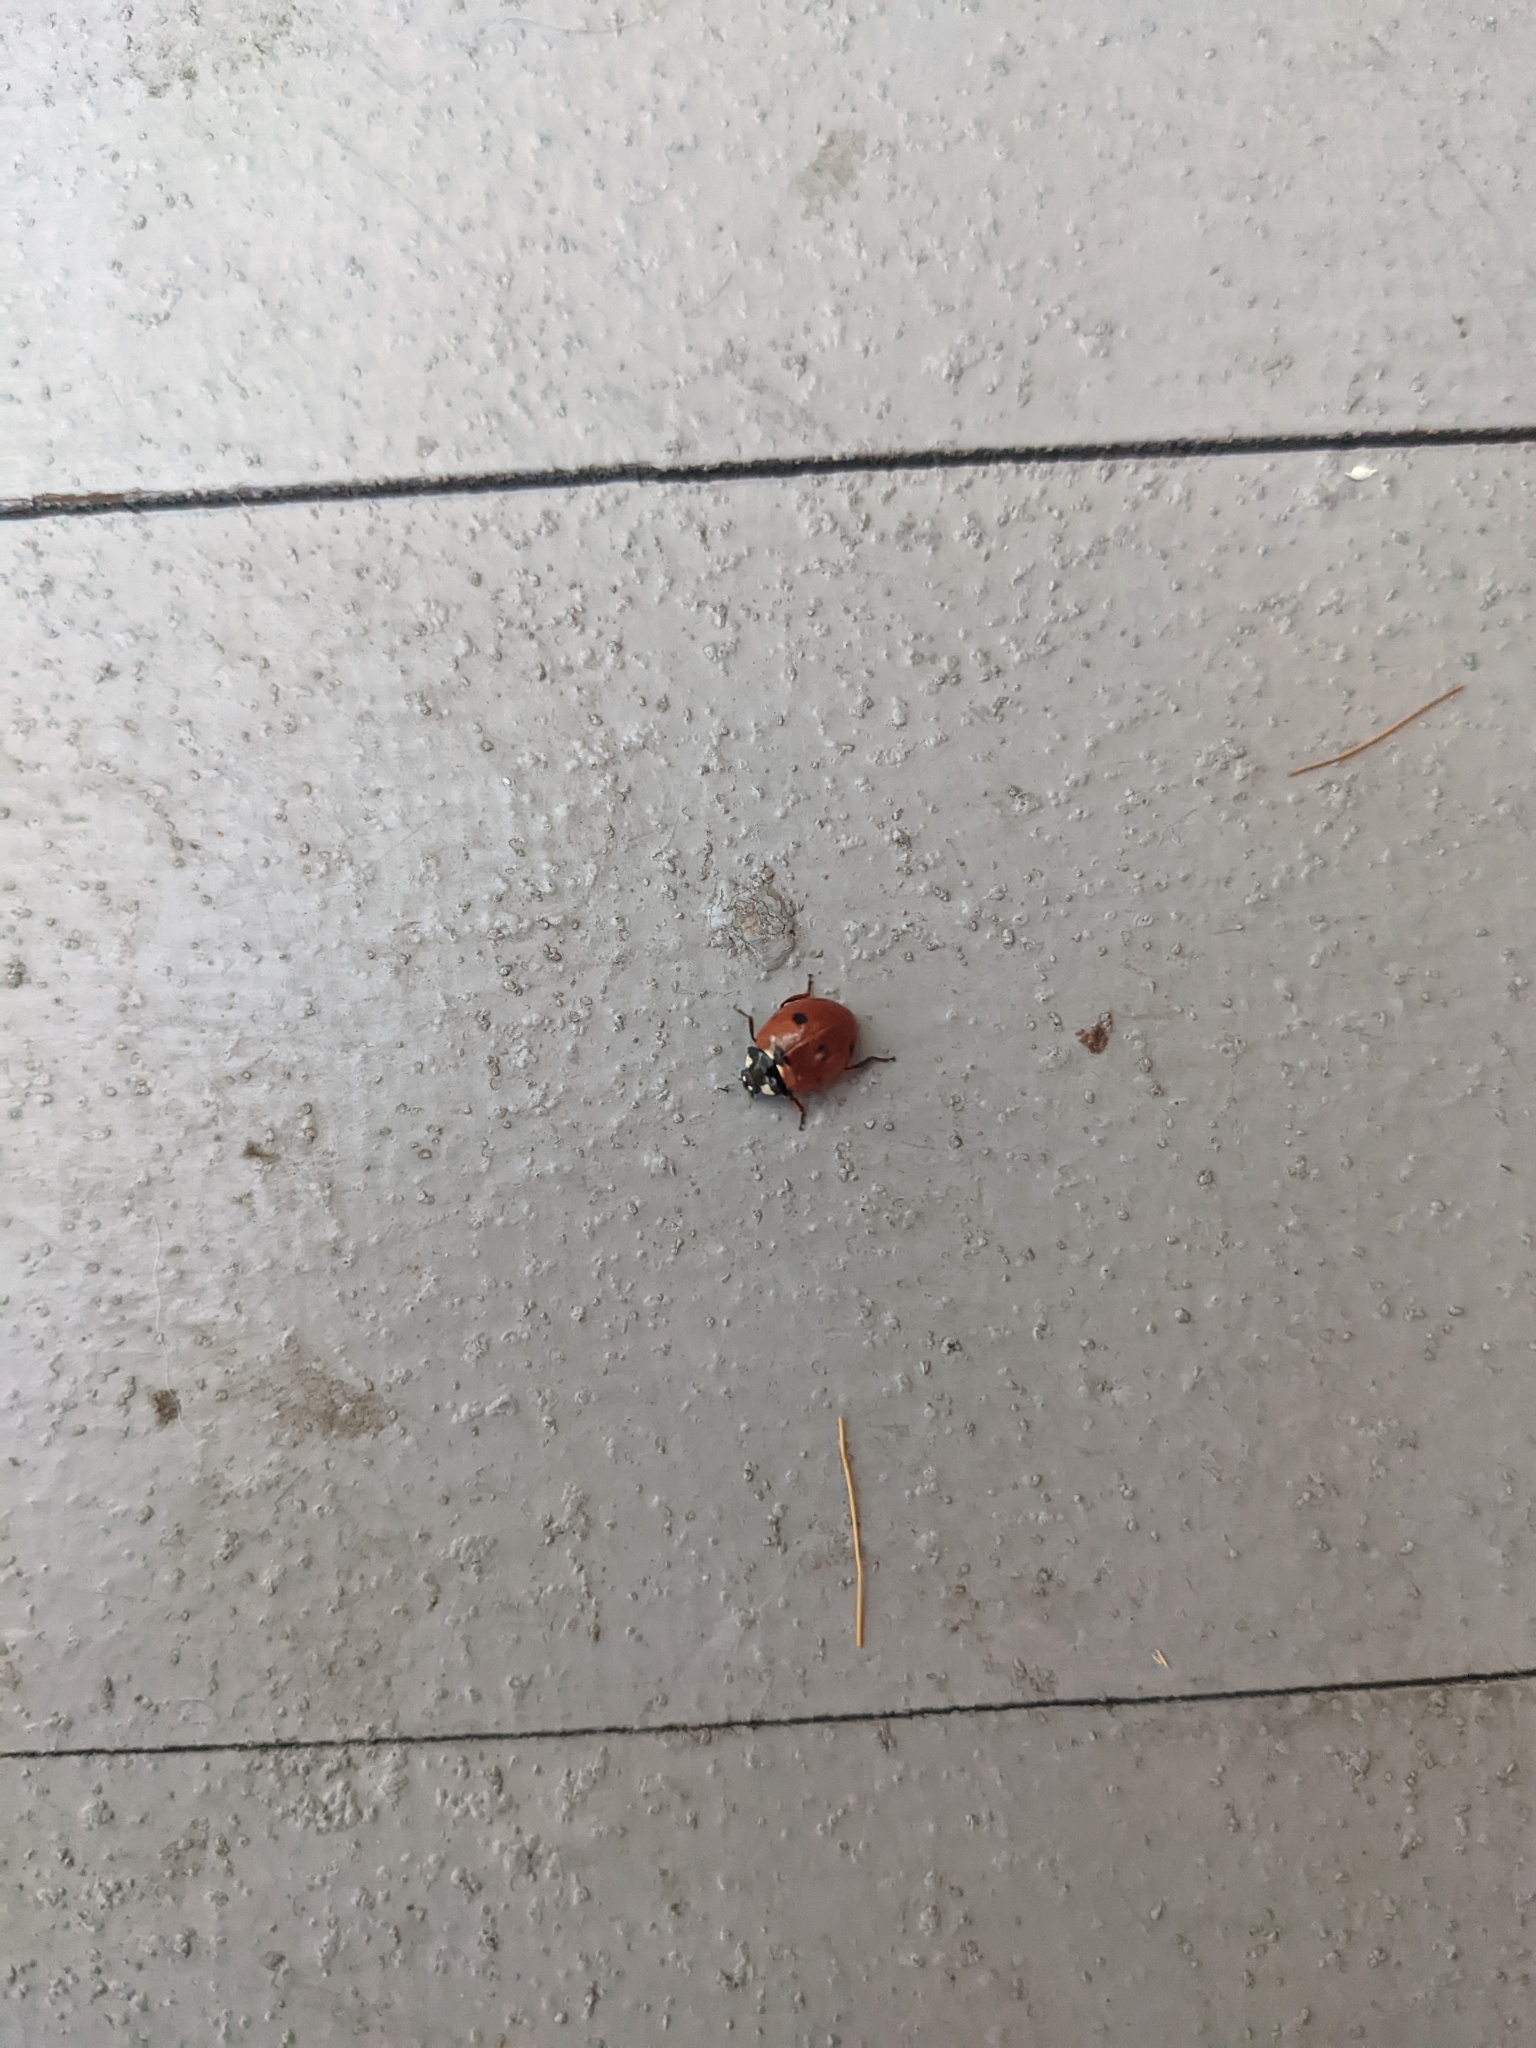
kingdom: Animalia
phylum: Arthropoda
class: Insecta
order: Coleoptera
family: Coccinellidae
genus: Coccinella
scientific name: Coccinella septempunctata
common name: Sevenspotted lady beetle
